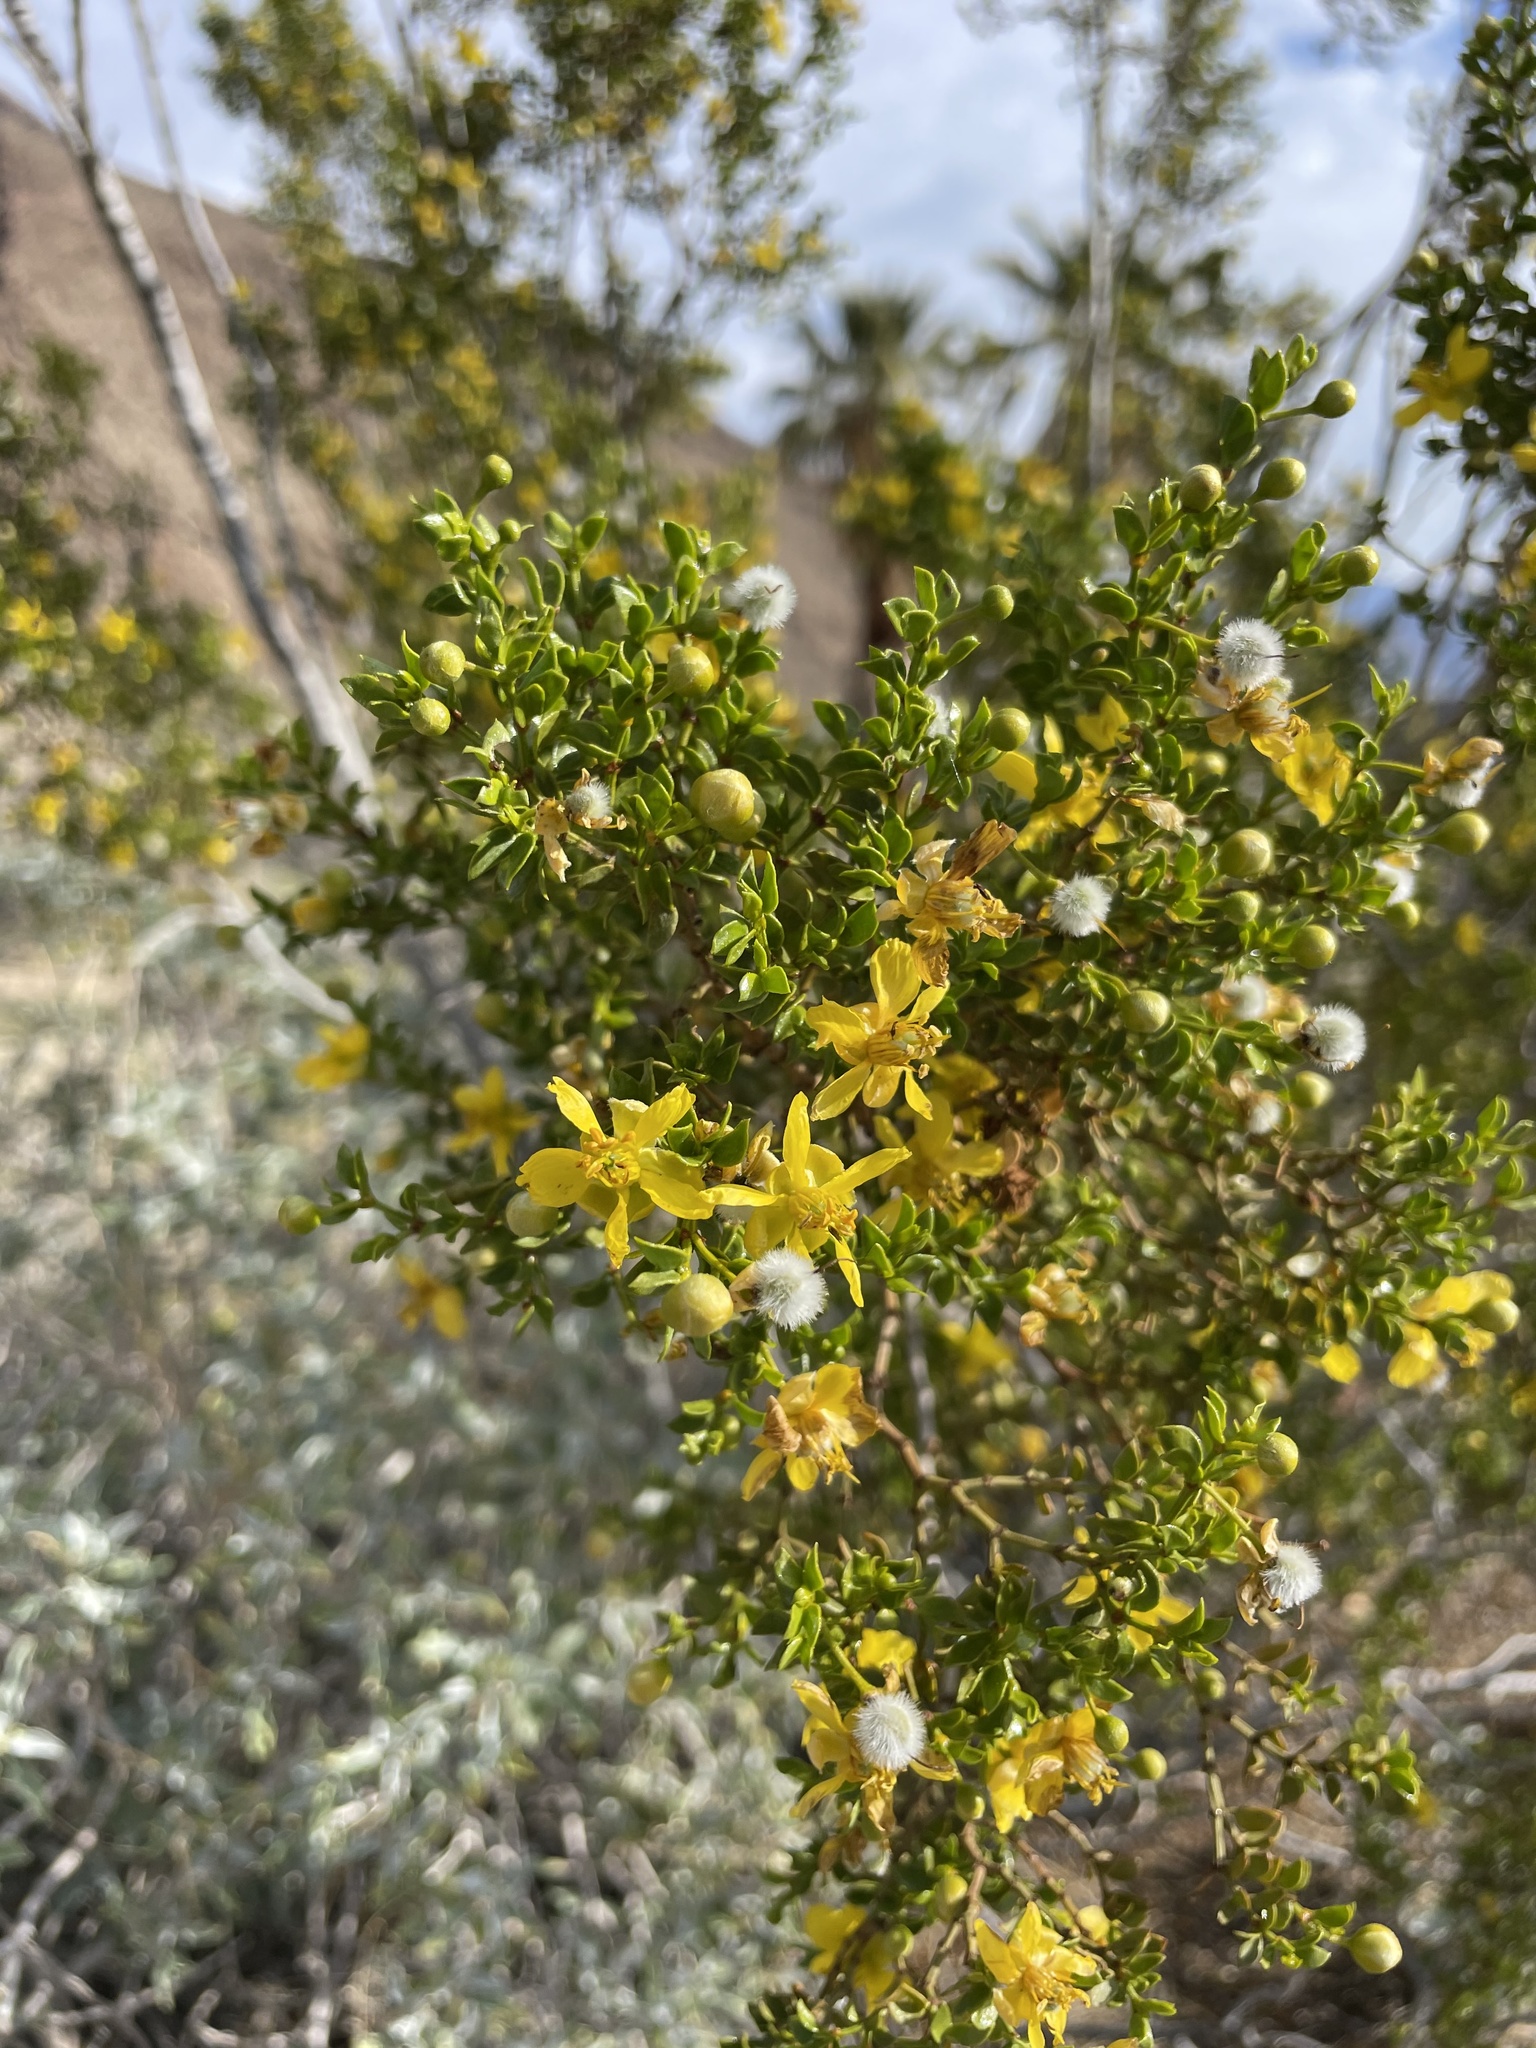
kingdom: Plantae
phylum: Tracheophyta
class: Magnoliopsida
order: Zygophyllales
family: Zygophyllaceae
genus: Larrea
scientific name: Larrea tridentata
